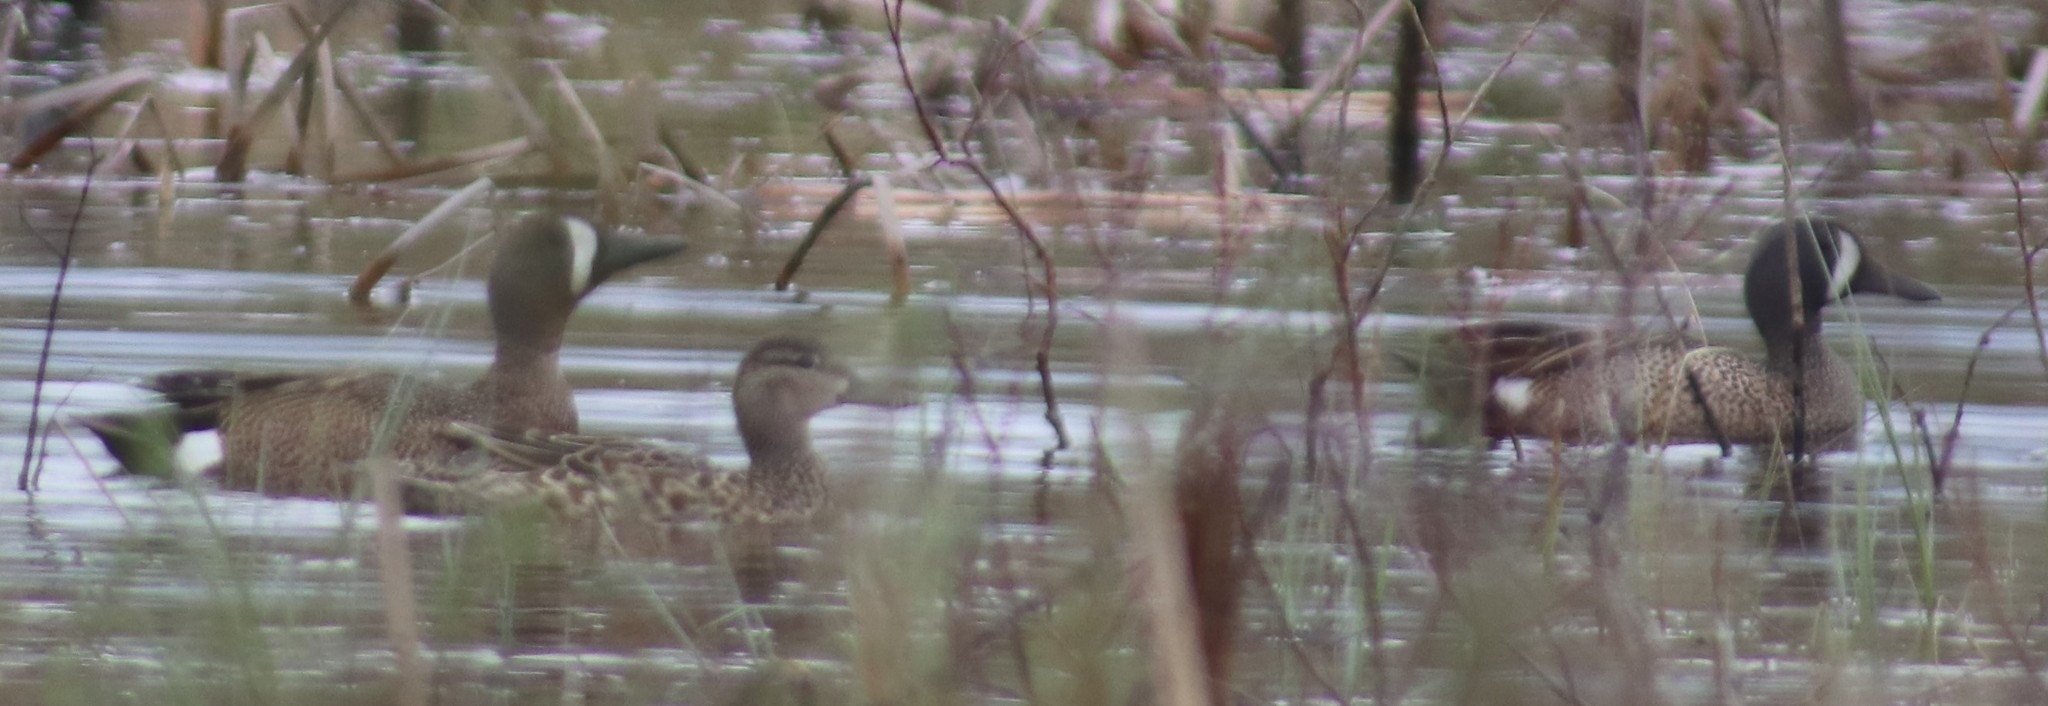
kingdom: Animalia
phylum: Chordata
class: Aves
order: Anseriformes
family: Anatidae
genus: Spatula
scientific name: Spatula discors
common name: Blue-winged teal
